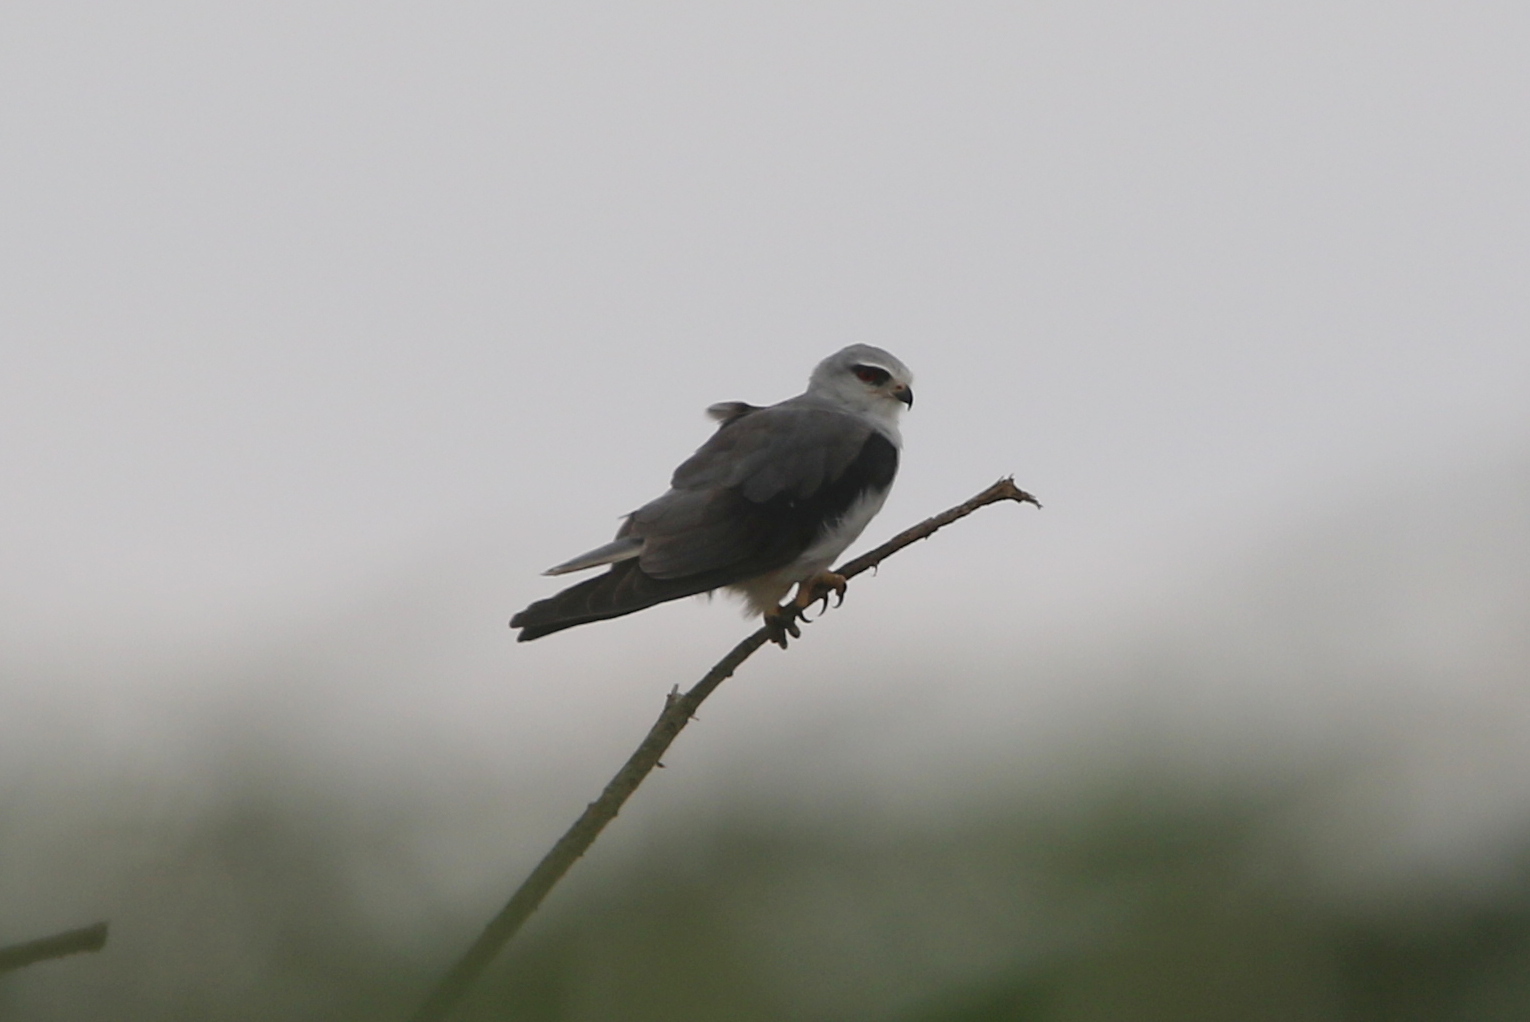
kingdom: Animalia
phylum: Chordata
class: Aves
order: Accipitriformes
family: Accipitridae
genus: Elanus
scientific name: Elanus caeruleus
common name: Black-winged kite
